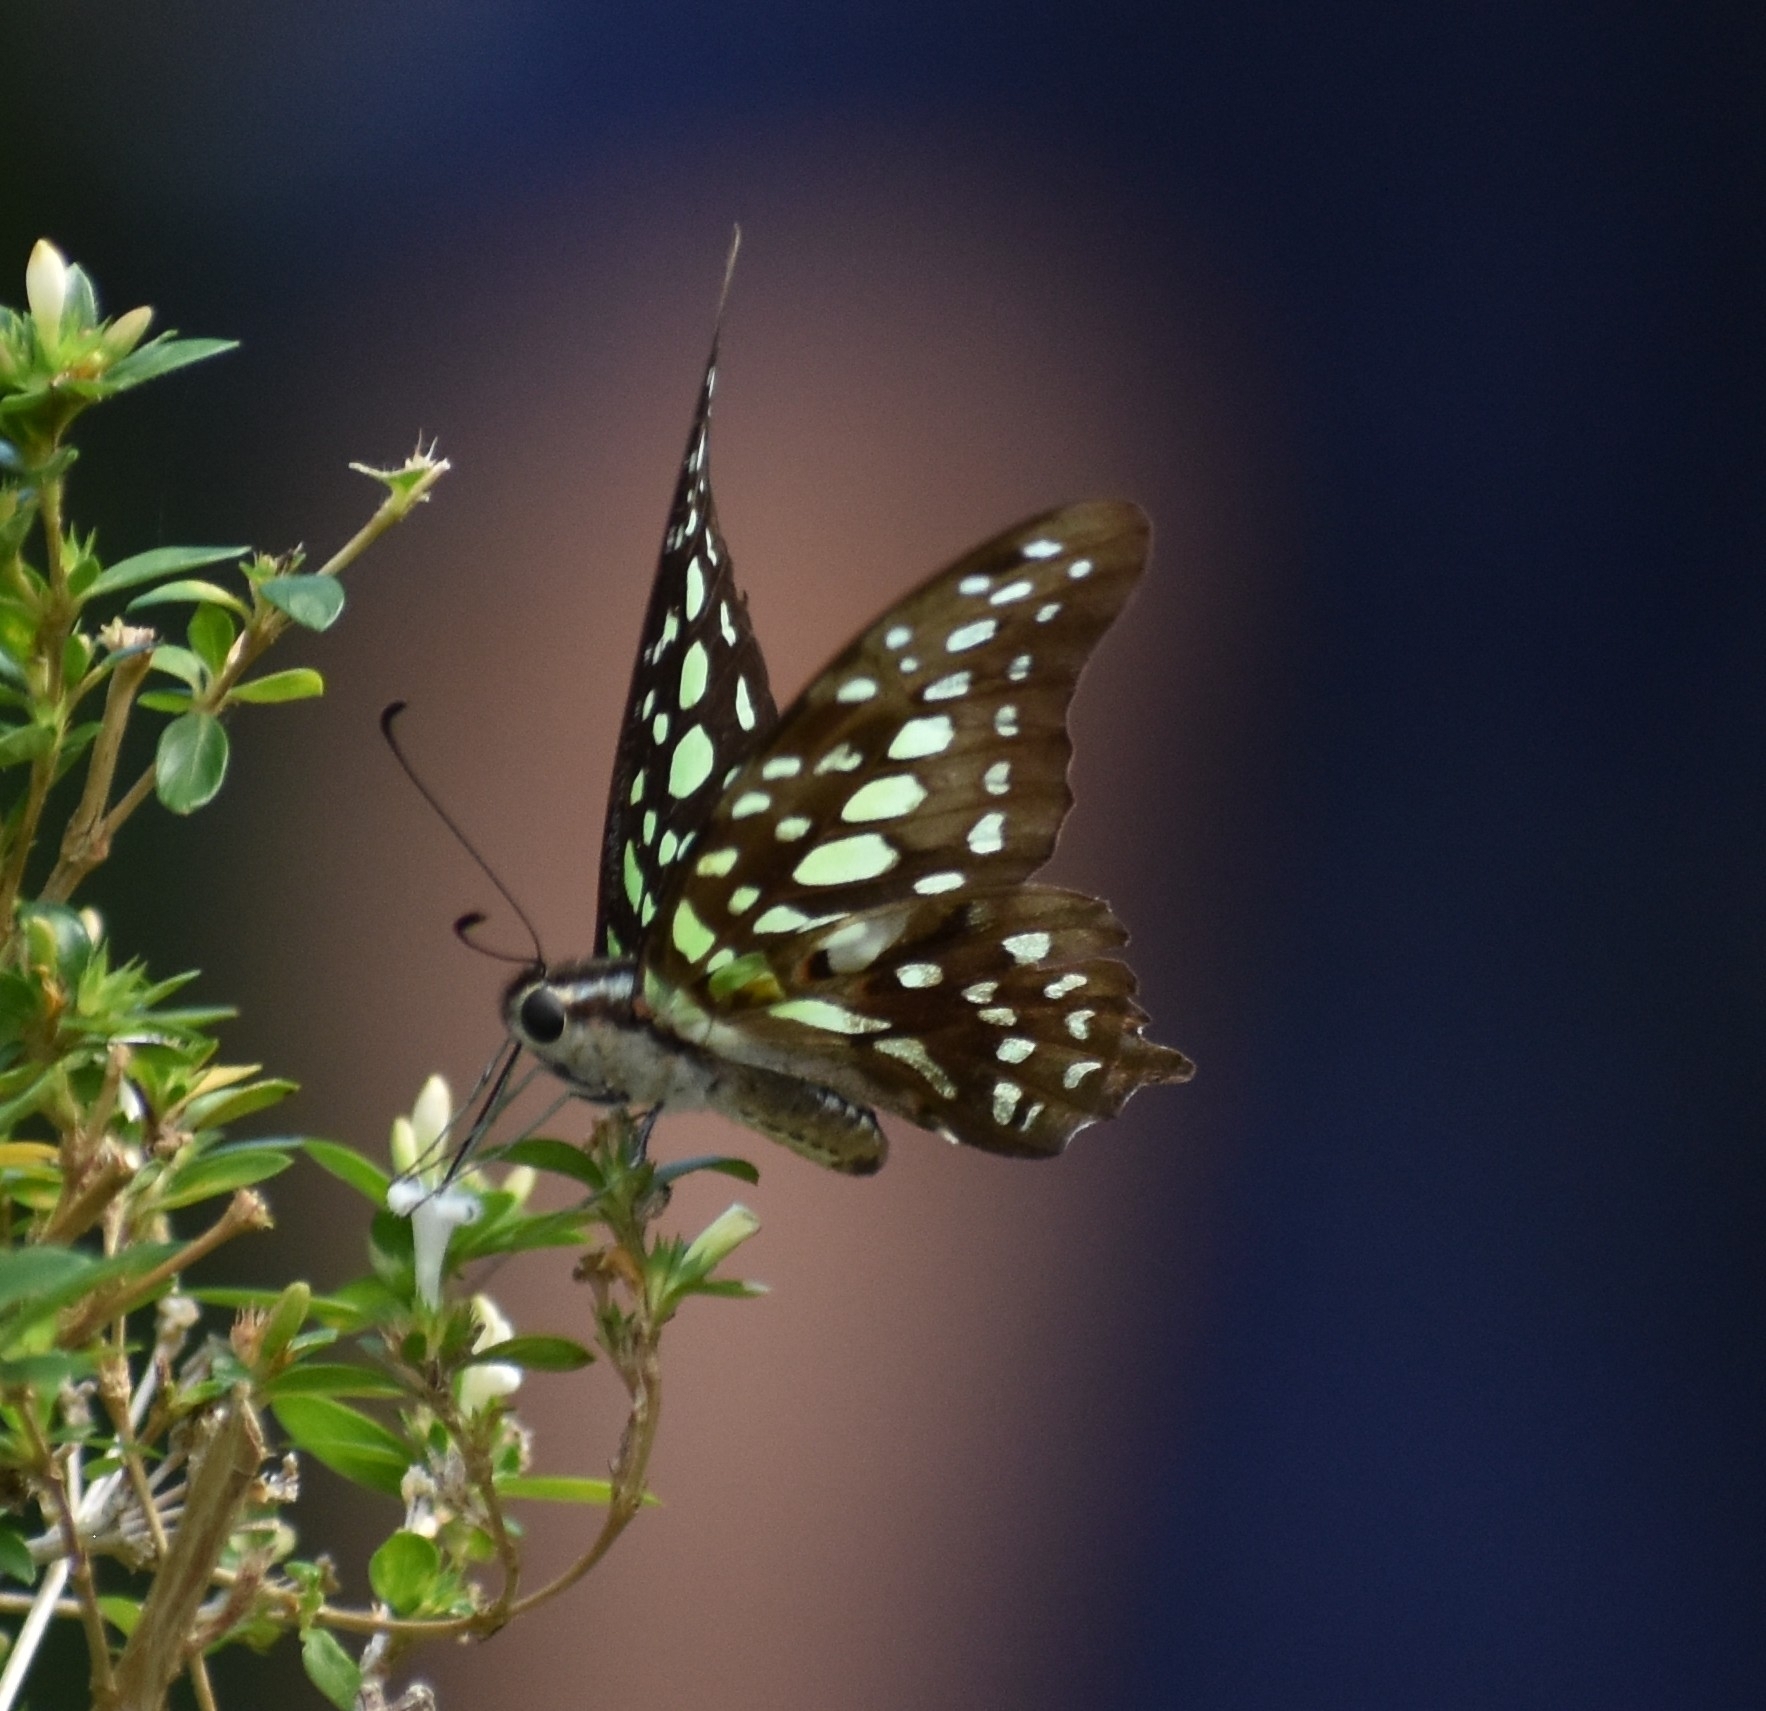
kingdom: Animalia
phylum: Arthropoda
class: Insecta
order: Lepidoptera
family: Papilionidae
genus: Graphium
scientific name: Graphium agamemnon
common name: Tailed jay
